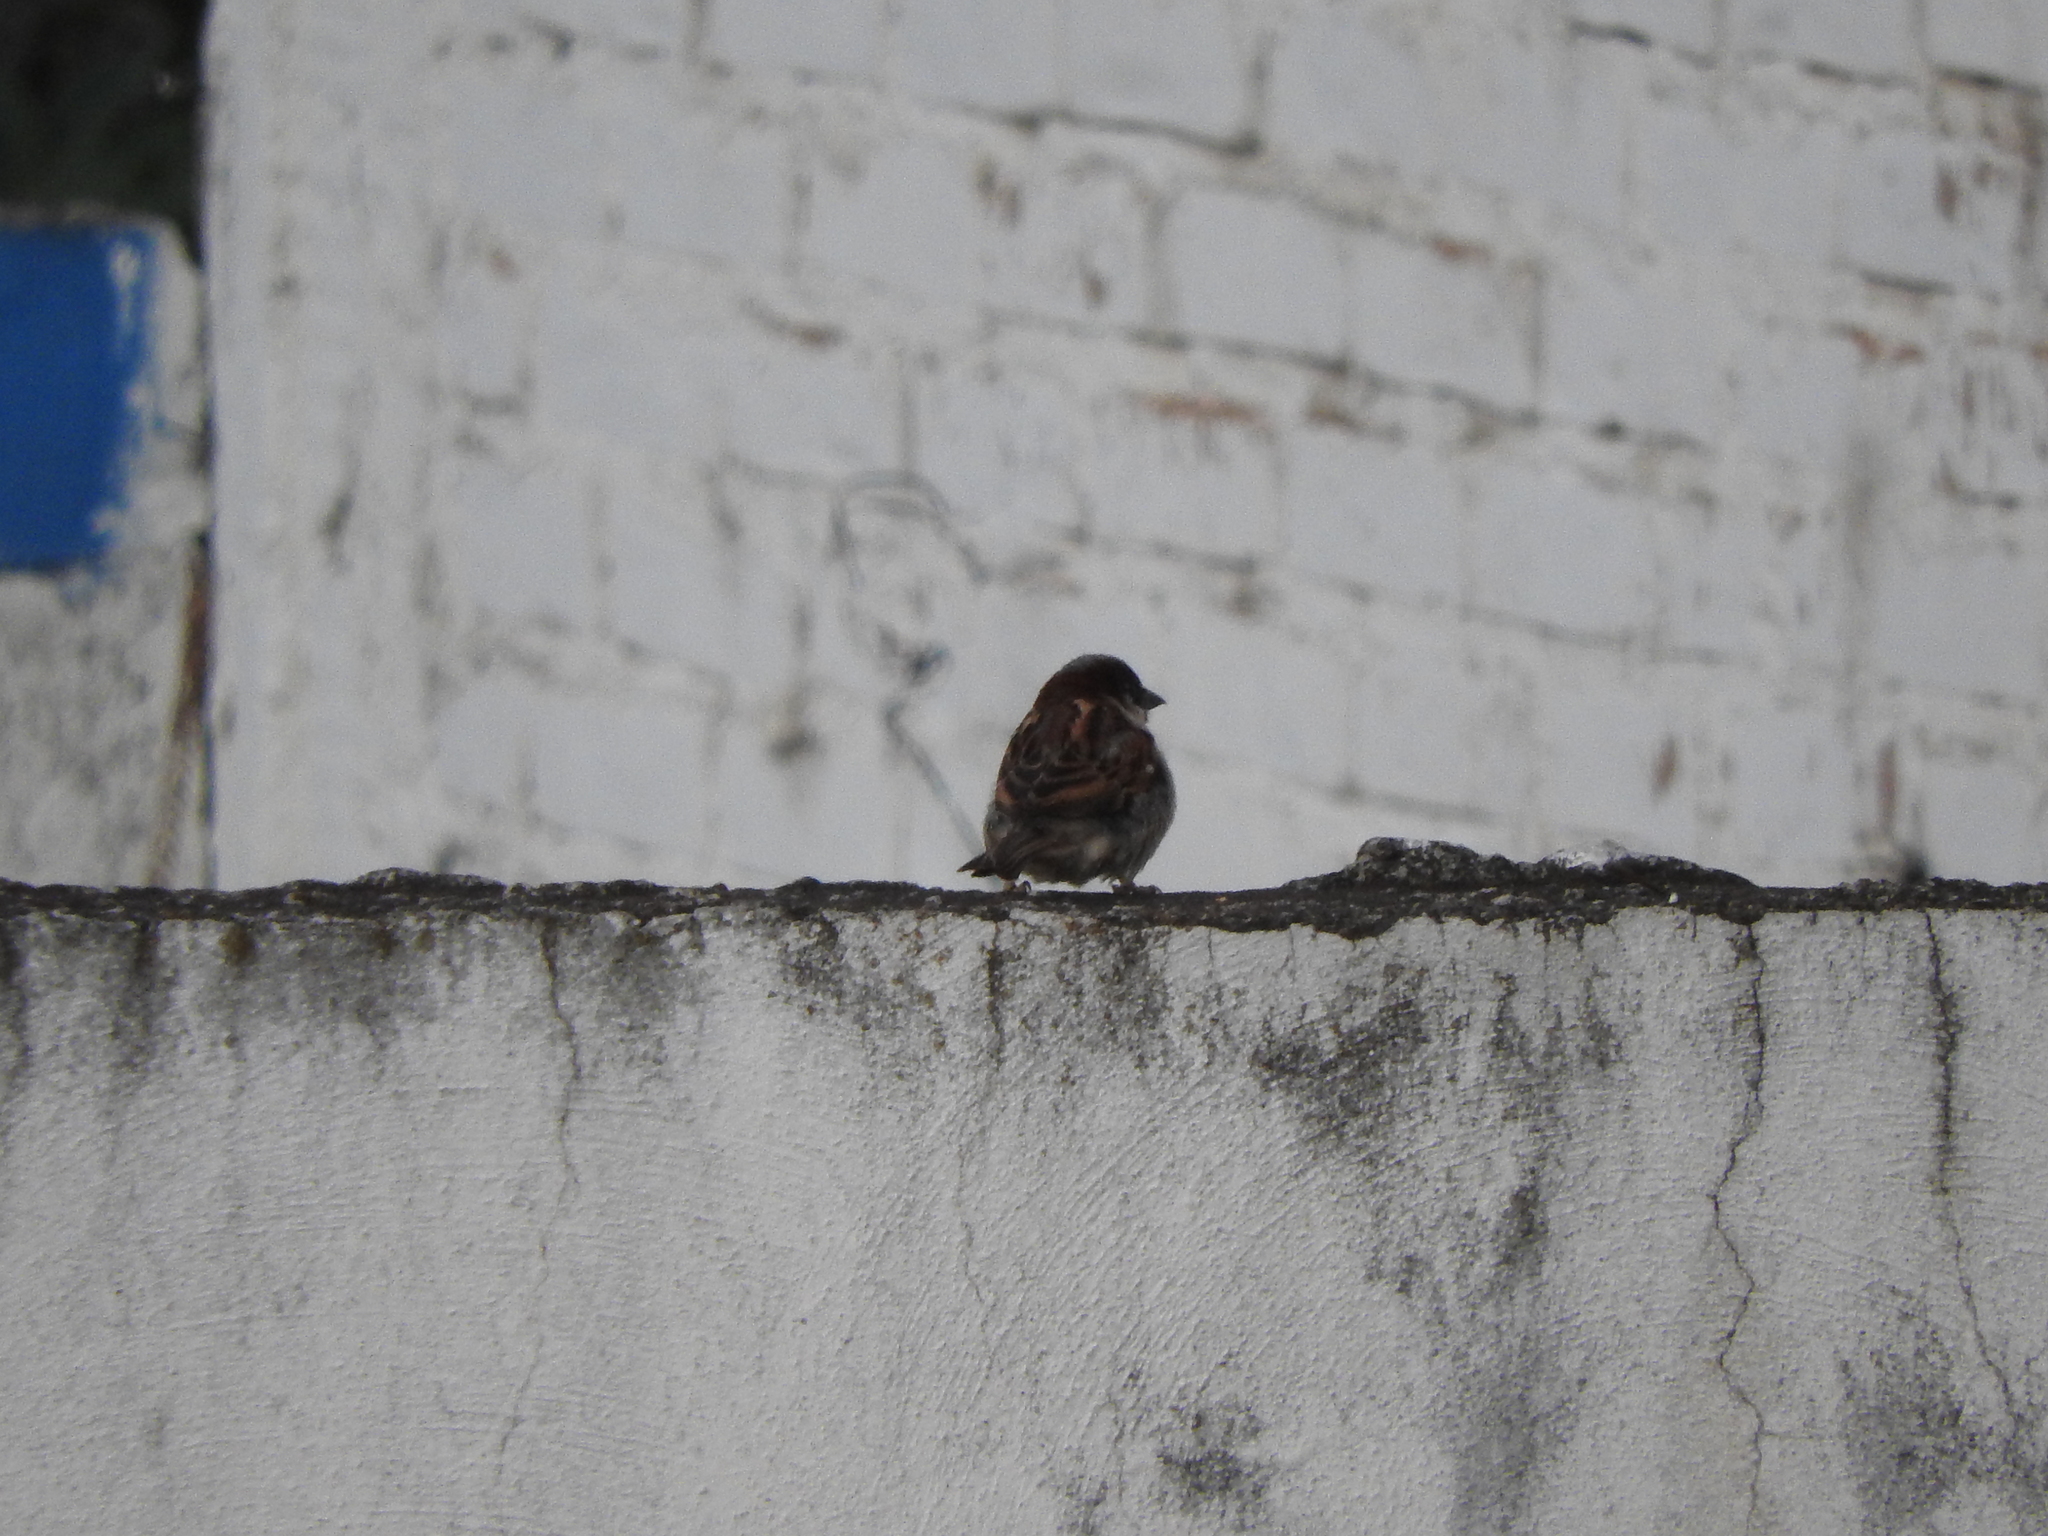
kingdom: Animalia
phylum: Chordata
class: Aves
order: Passeriformes
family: Passeridae
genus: Passer
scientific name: Passer domesticus
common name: House sparrow
